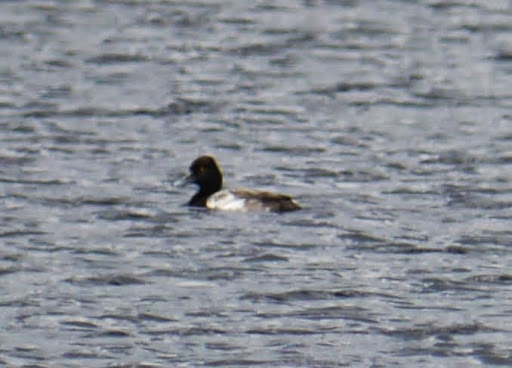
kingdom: Animalia
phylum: Chordata
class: Aves
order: Anseriformes
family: Anatidae
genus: Aythya
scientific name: Aythya affinis
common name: Lesser scaup
